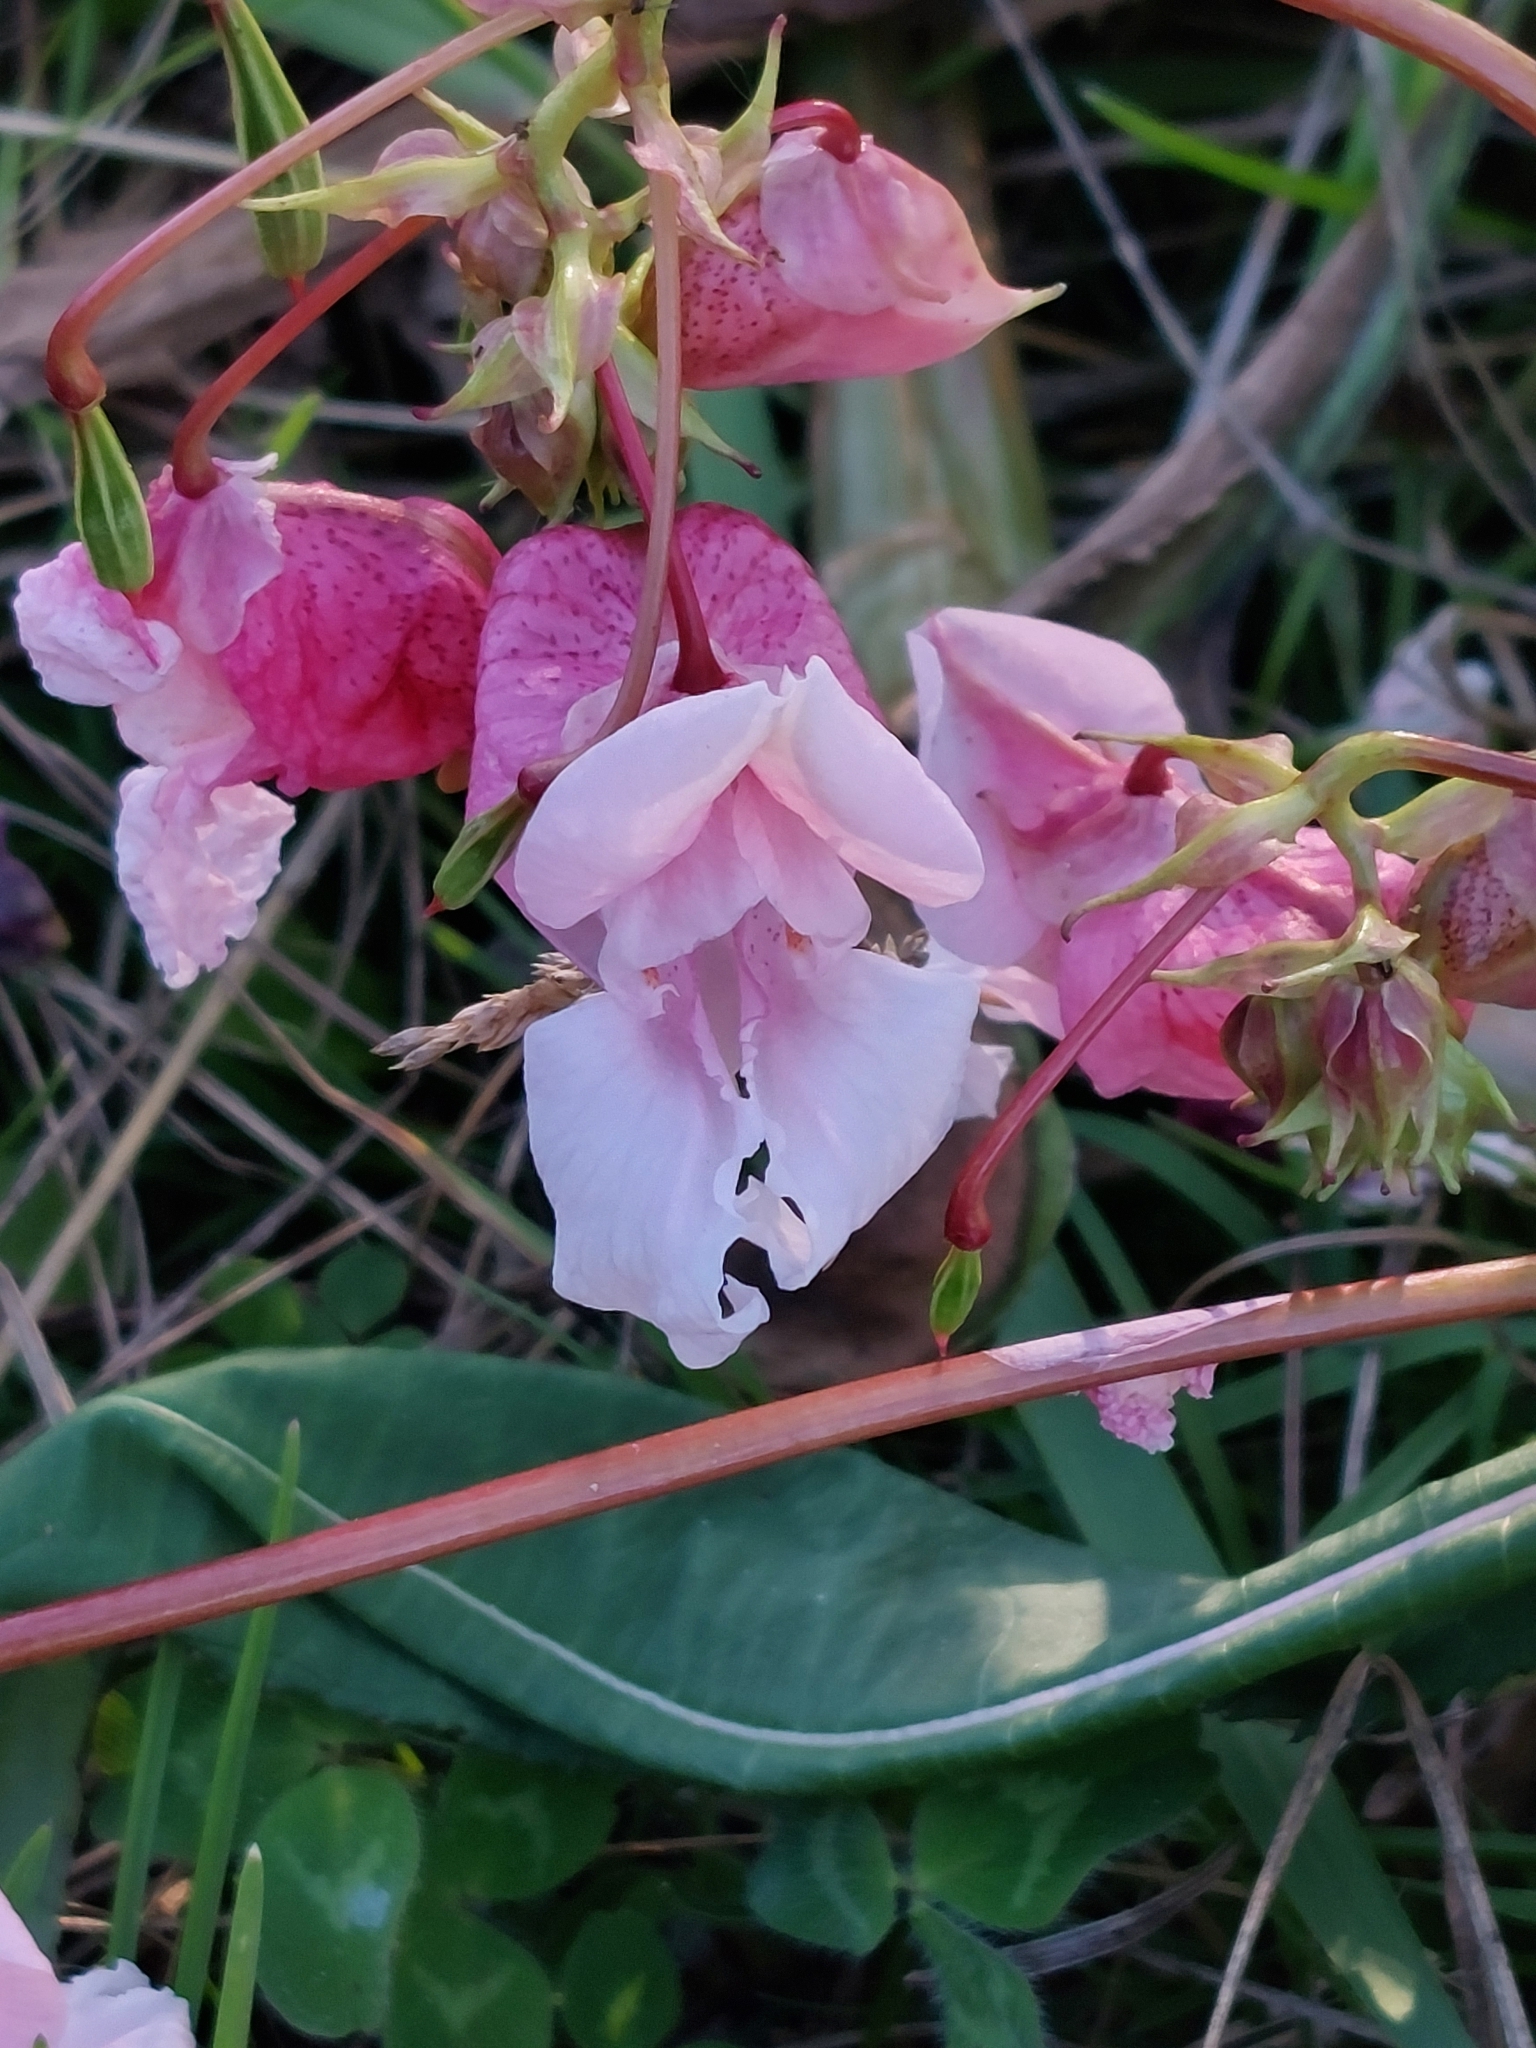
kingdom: Plantae
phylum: Tracheophyta
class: Magnoliopsida
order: Ericales
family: Balsaminaceae
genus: Impatiens
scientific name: Impatiens glandulifera
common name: Himalayan balsam
